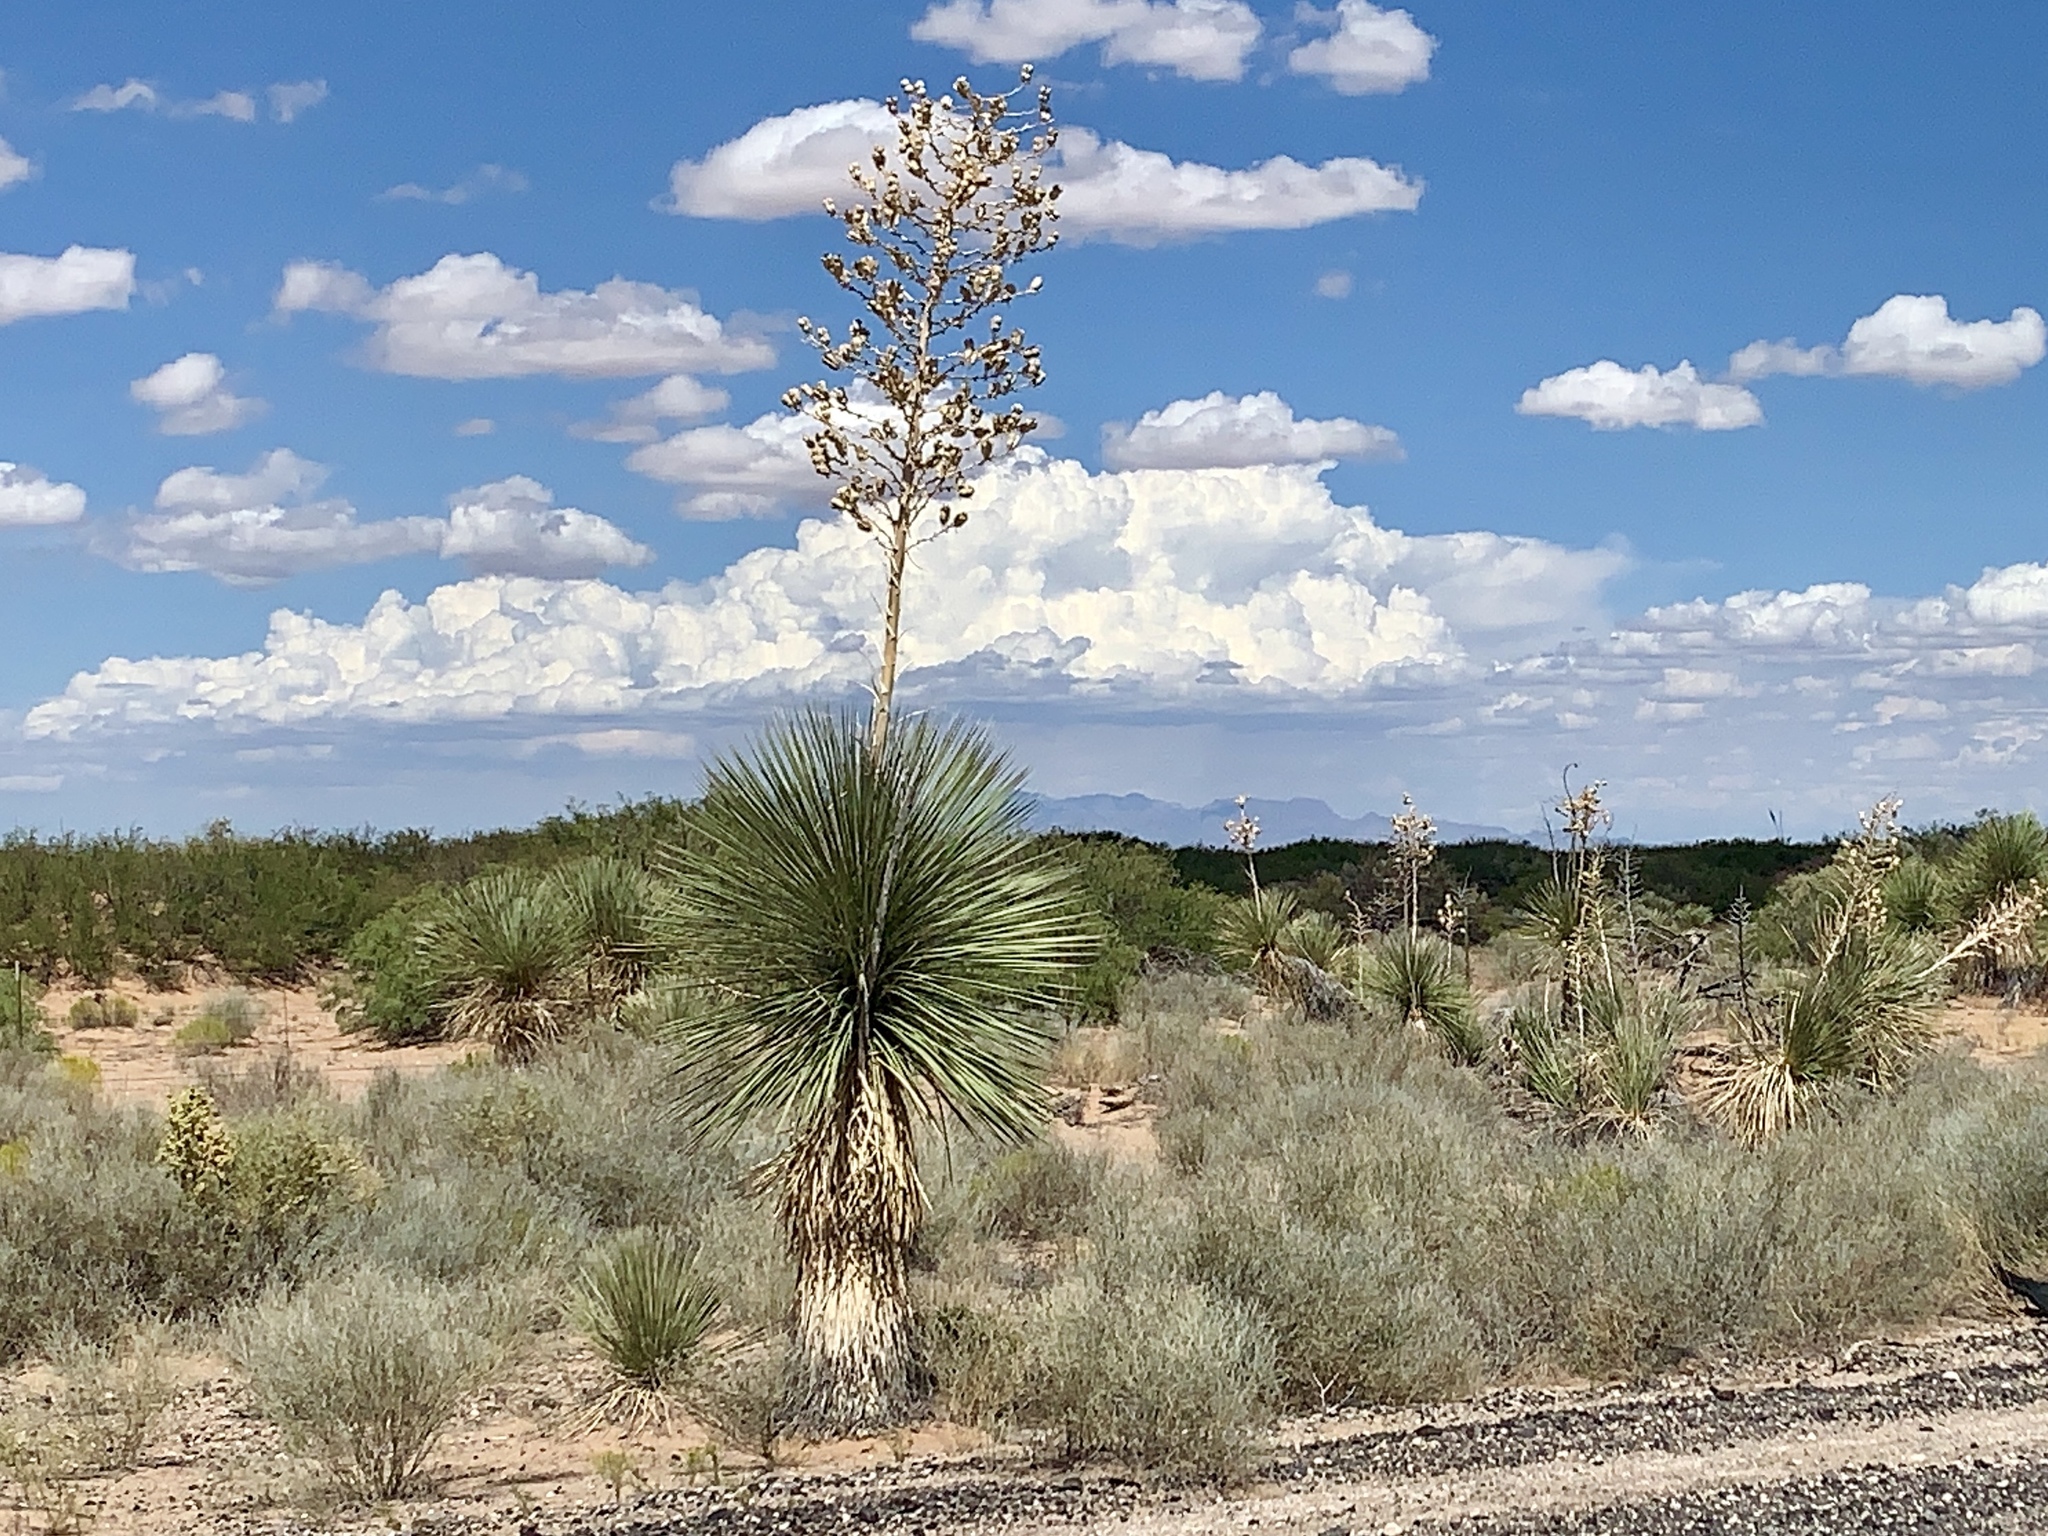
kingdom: Plantae
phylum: Tracheophyta
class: Liliopsida
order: Asparagales
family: Asparagaceae
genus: Yucca
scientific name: Yucca elata
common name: Palmella
